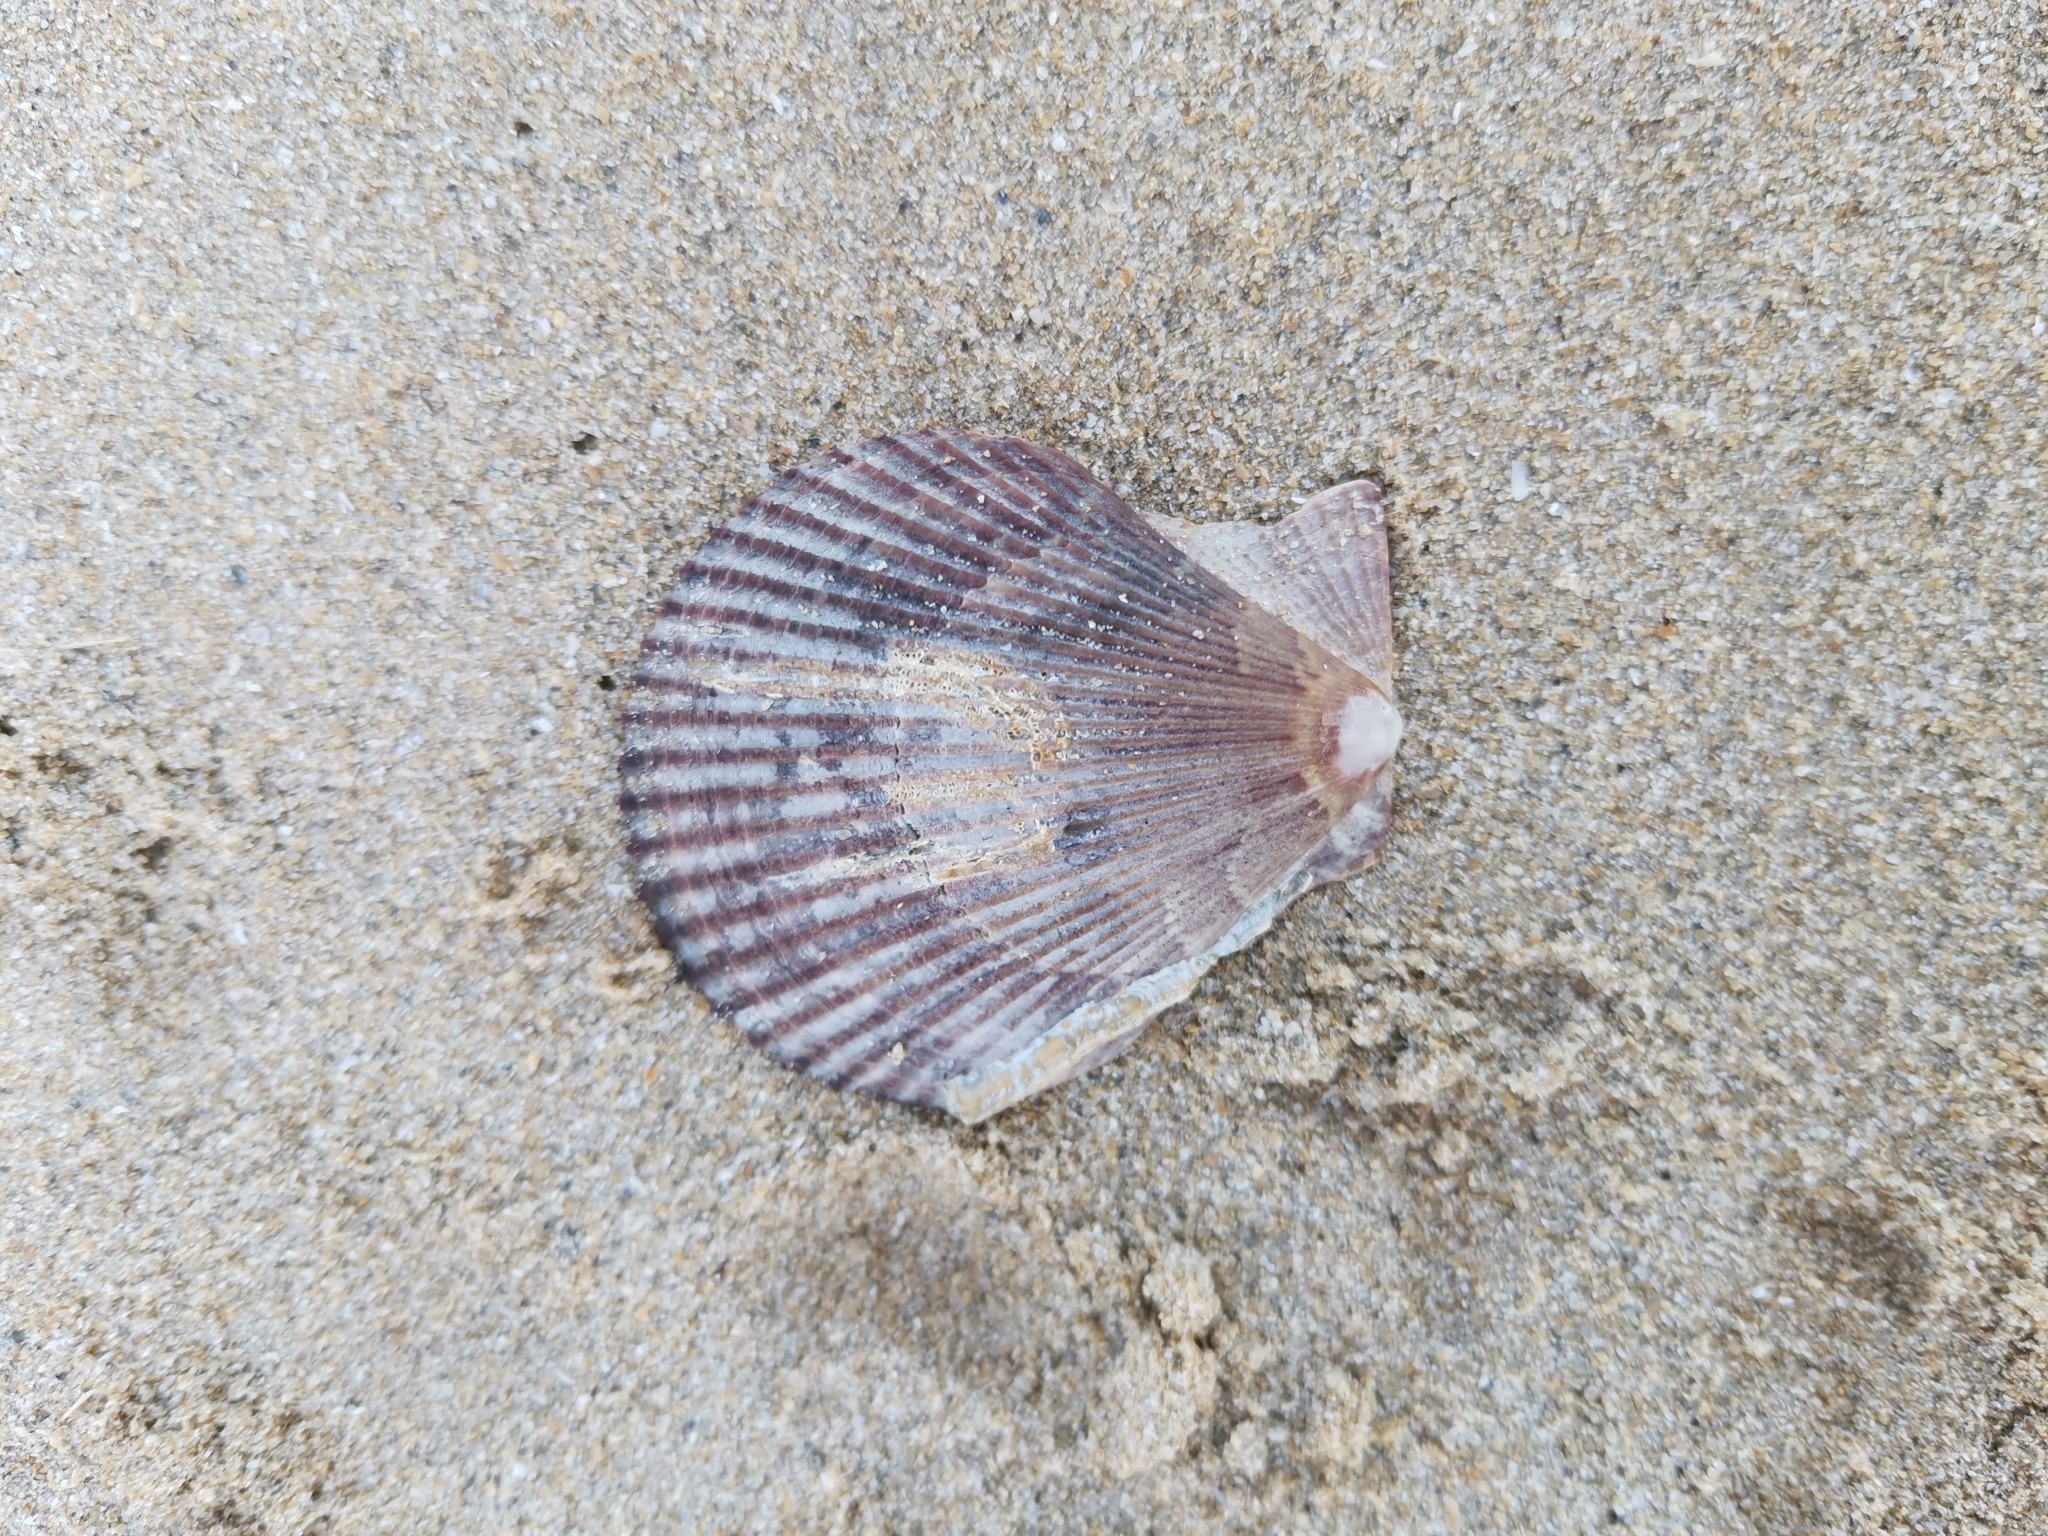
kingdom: Animalia
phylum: Mollusca
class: Bivalvia
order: Pectinida
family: Pectinidae
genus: Mimachlamys
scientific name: Mimachlamys varia
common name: Variegated scallop
